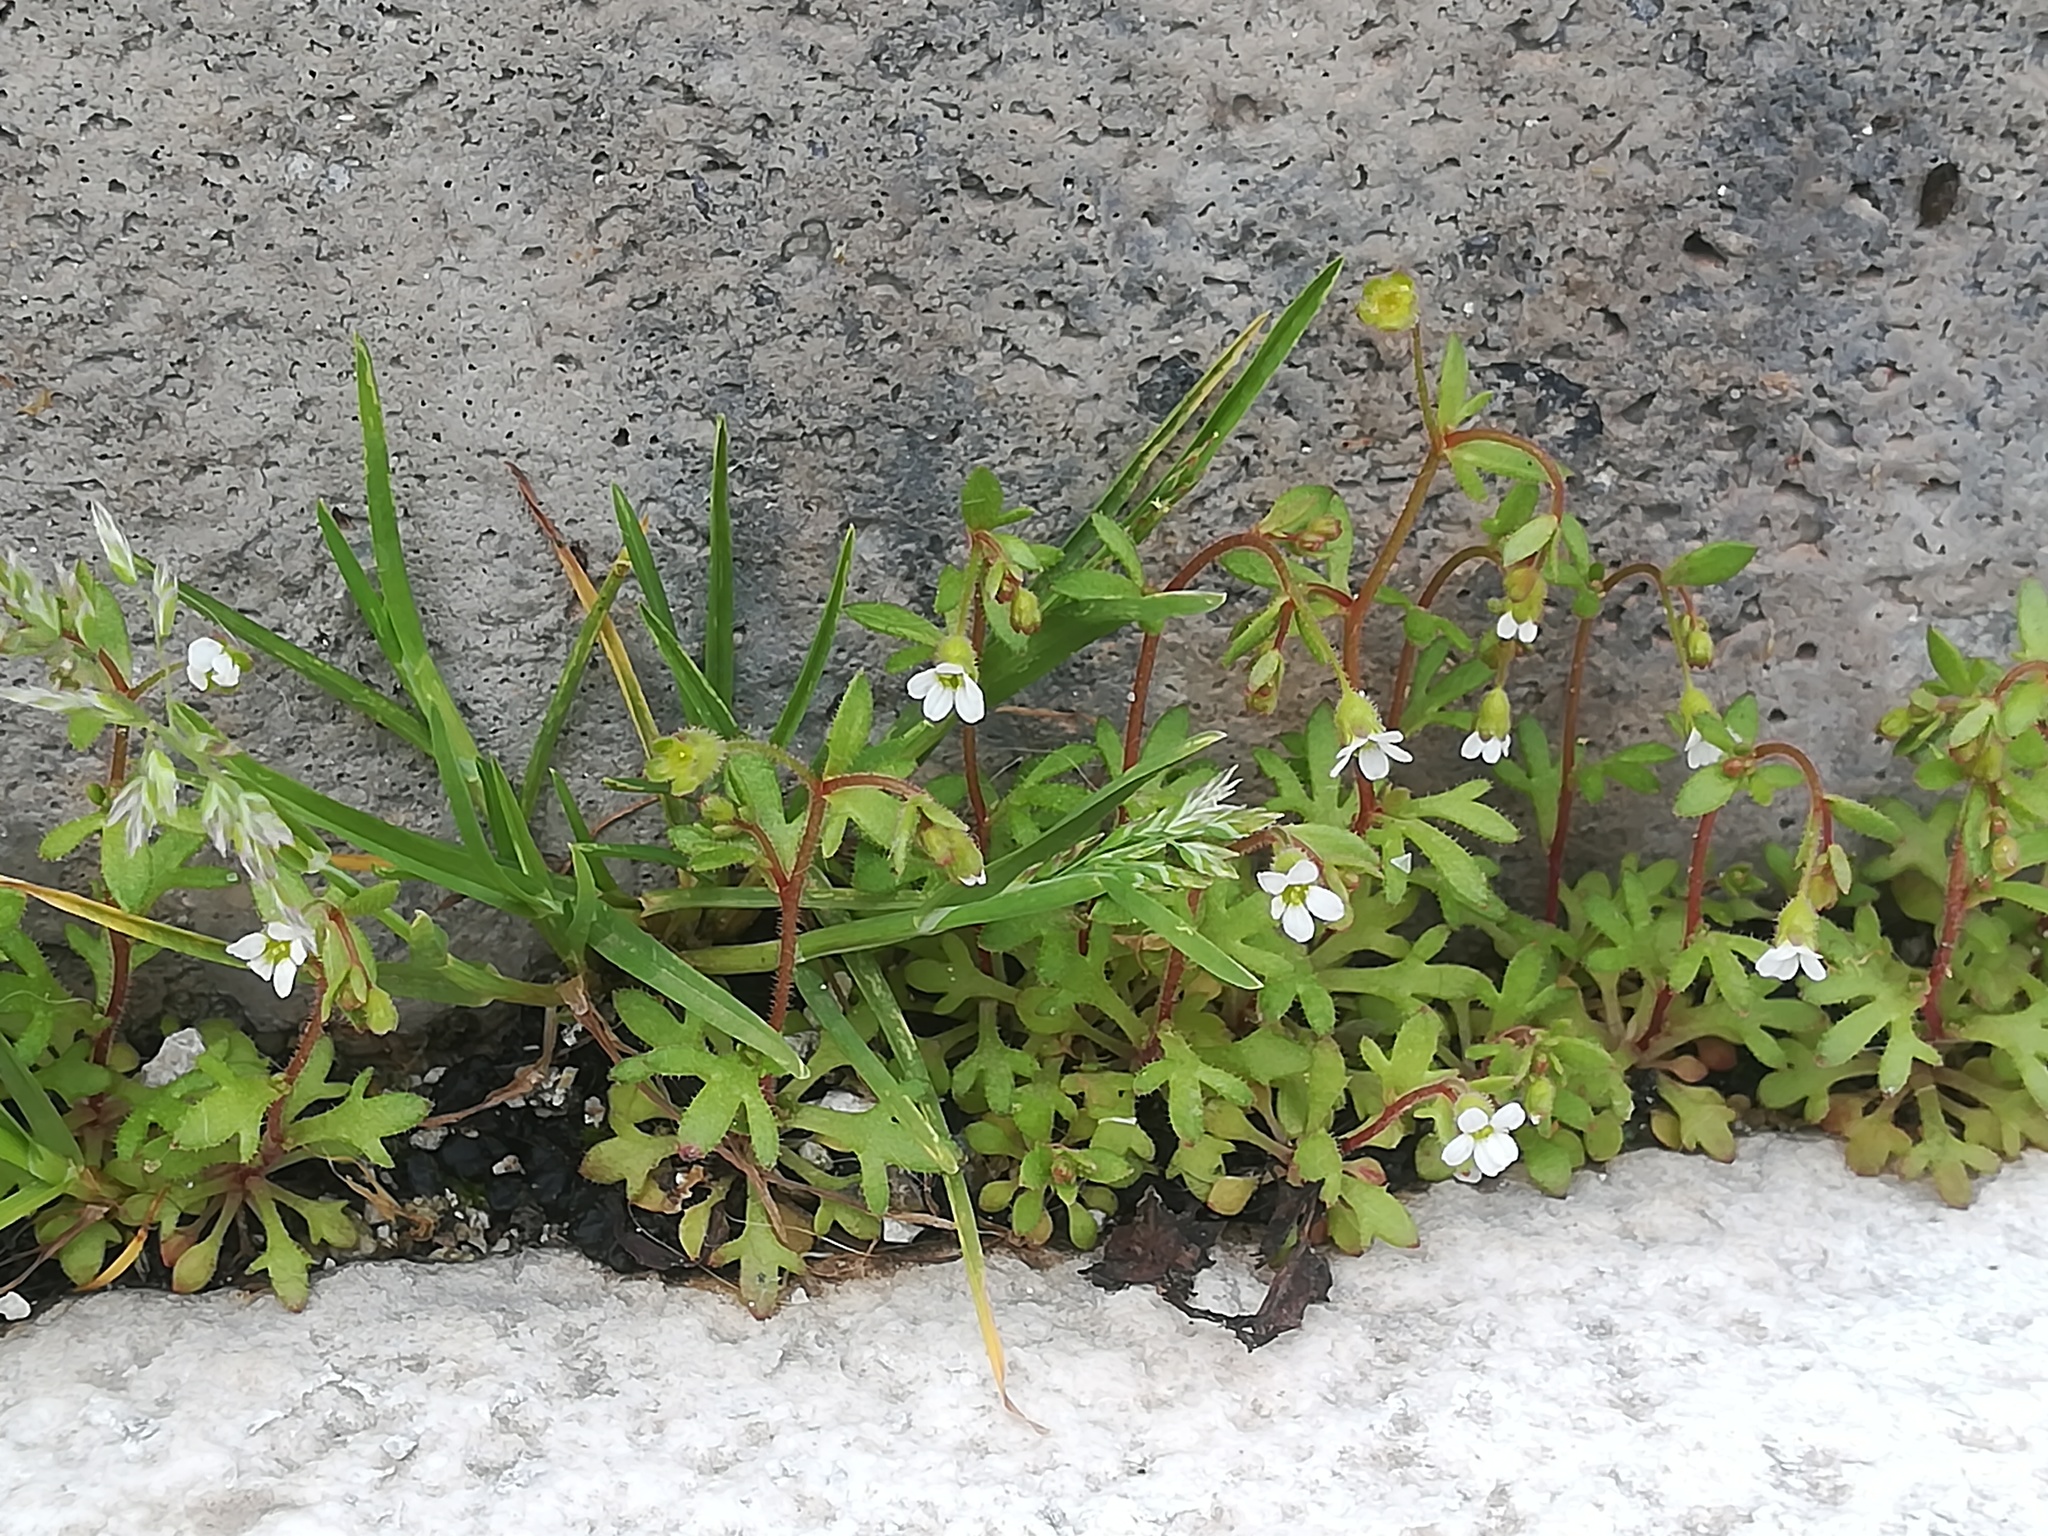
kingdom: Plantae
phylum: Tracheophyta
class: Magnoliopsida
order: Saxifragales
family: Saxifragaceae
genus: Saxifraga
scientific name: Saxifraga tridactylites
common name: Rue-leaved saxifrage
